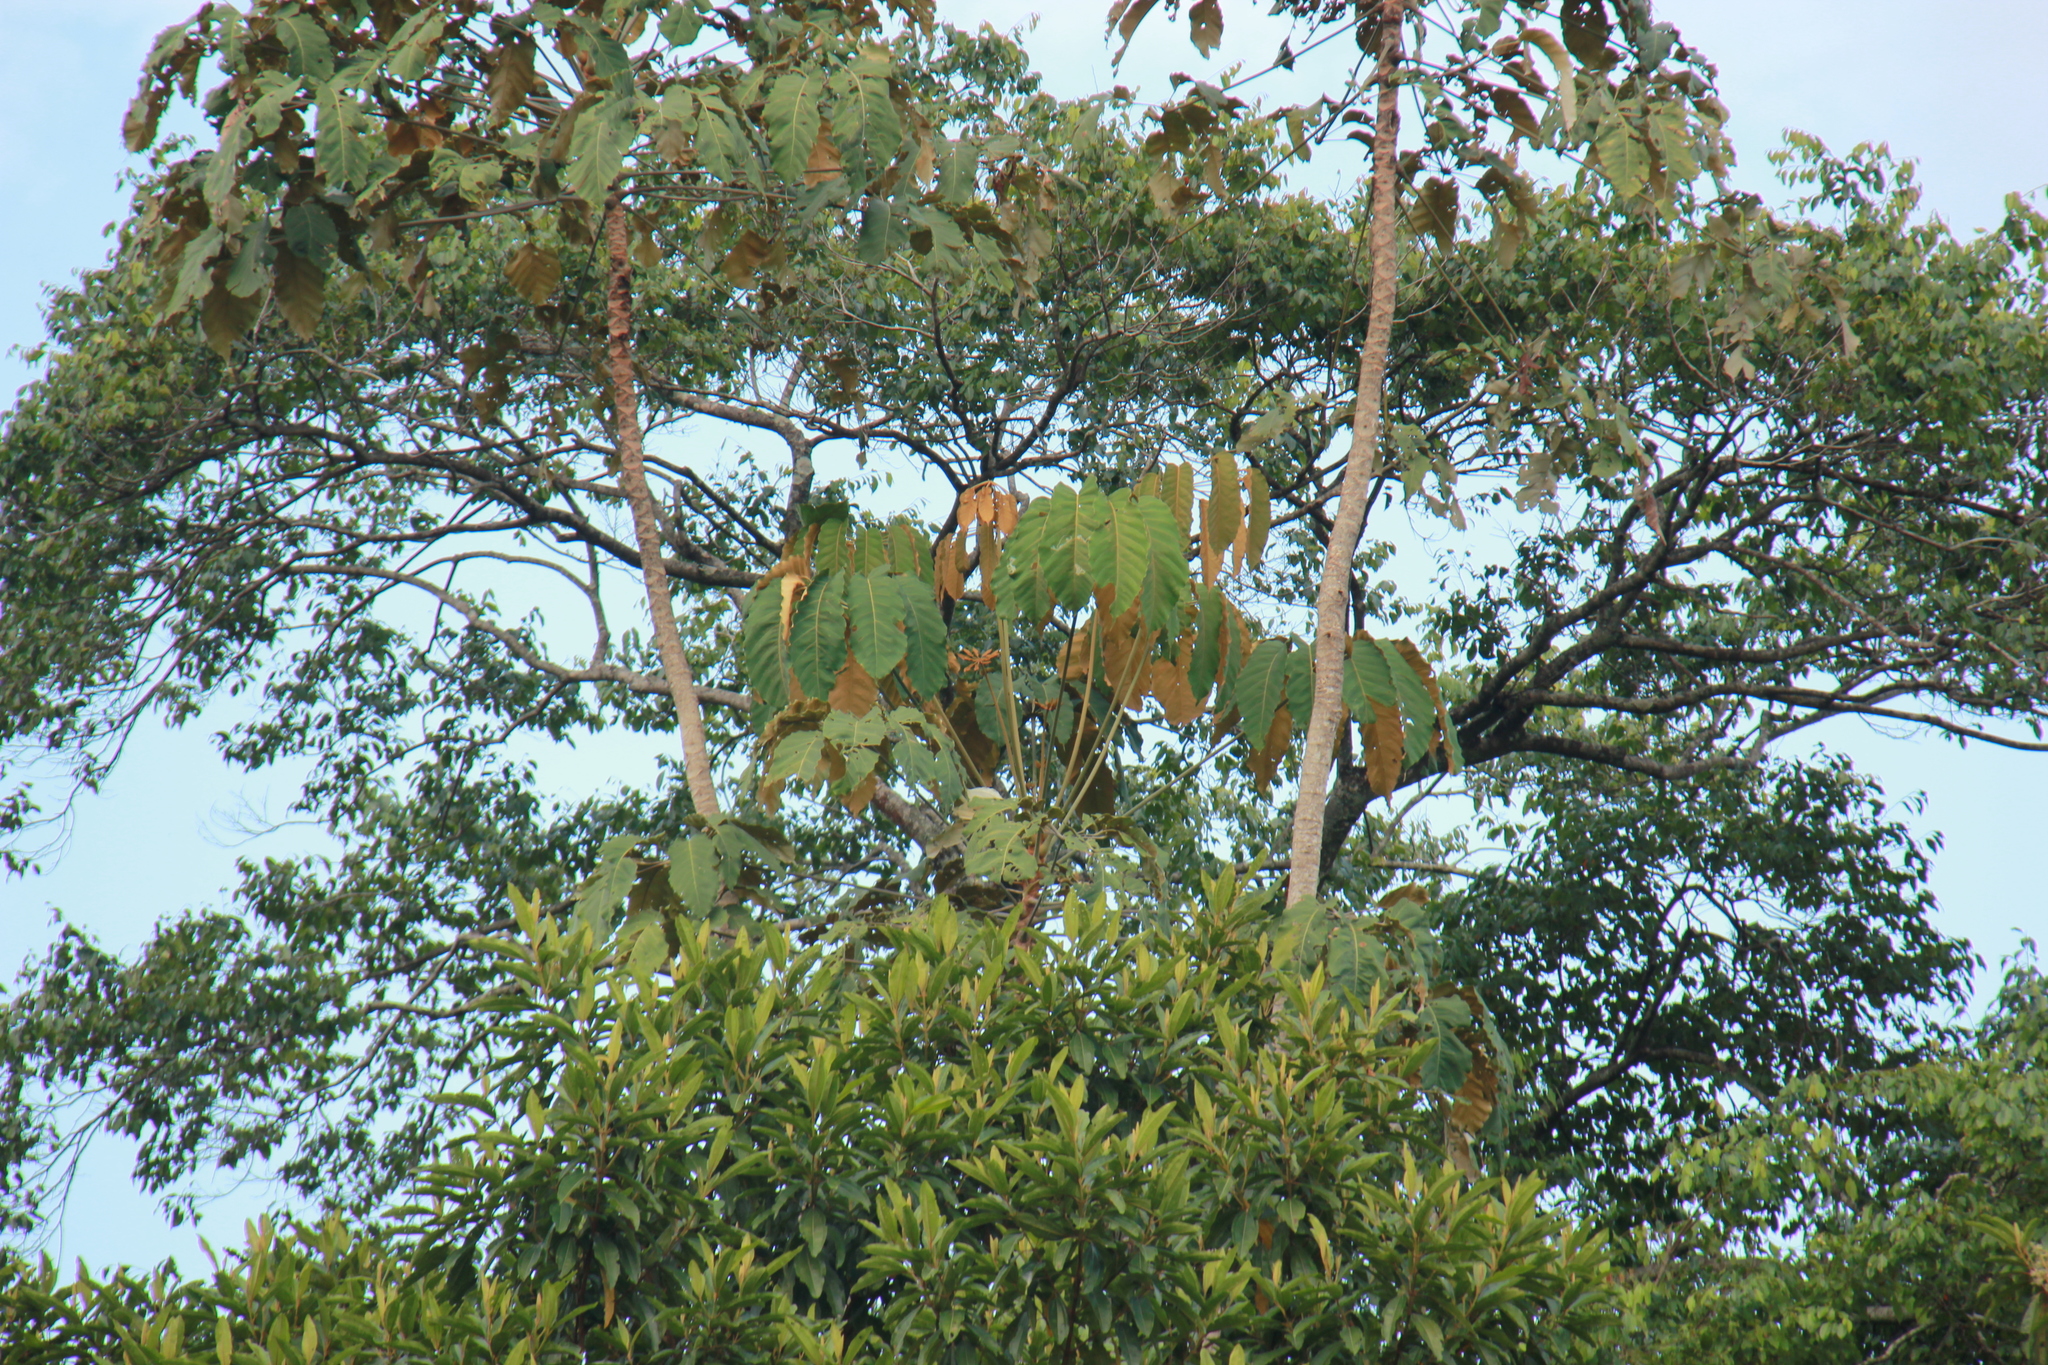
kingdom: Plantae
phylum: Tracheophyta
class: Magnoliopsida
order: Apiales
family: Araliaceae
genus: Didymopanax
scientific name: Didymopanax morototoni
